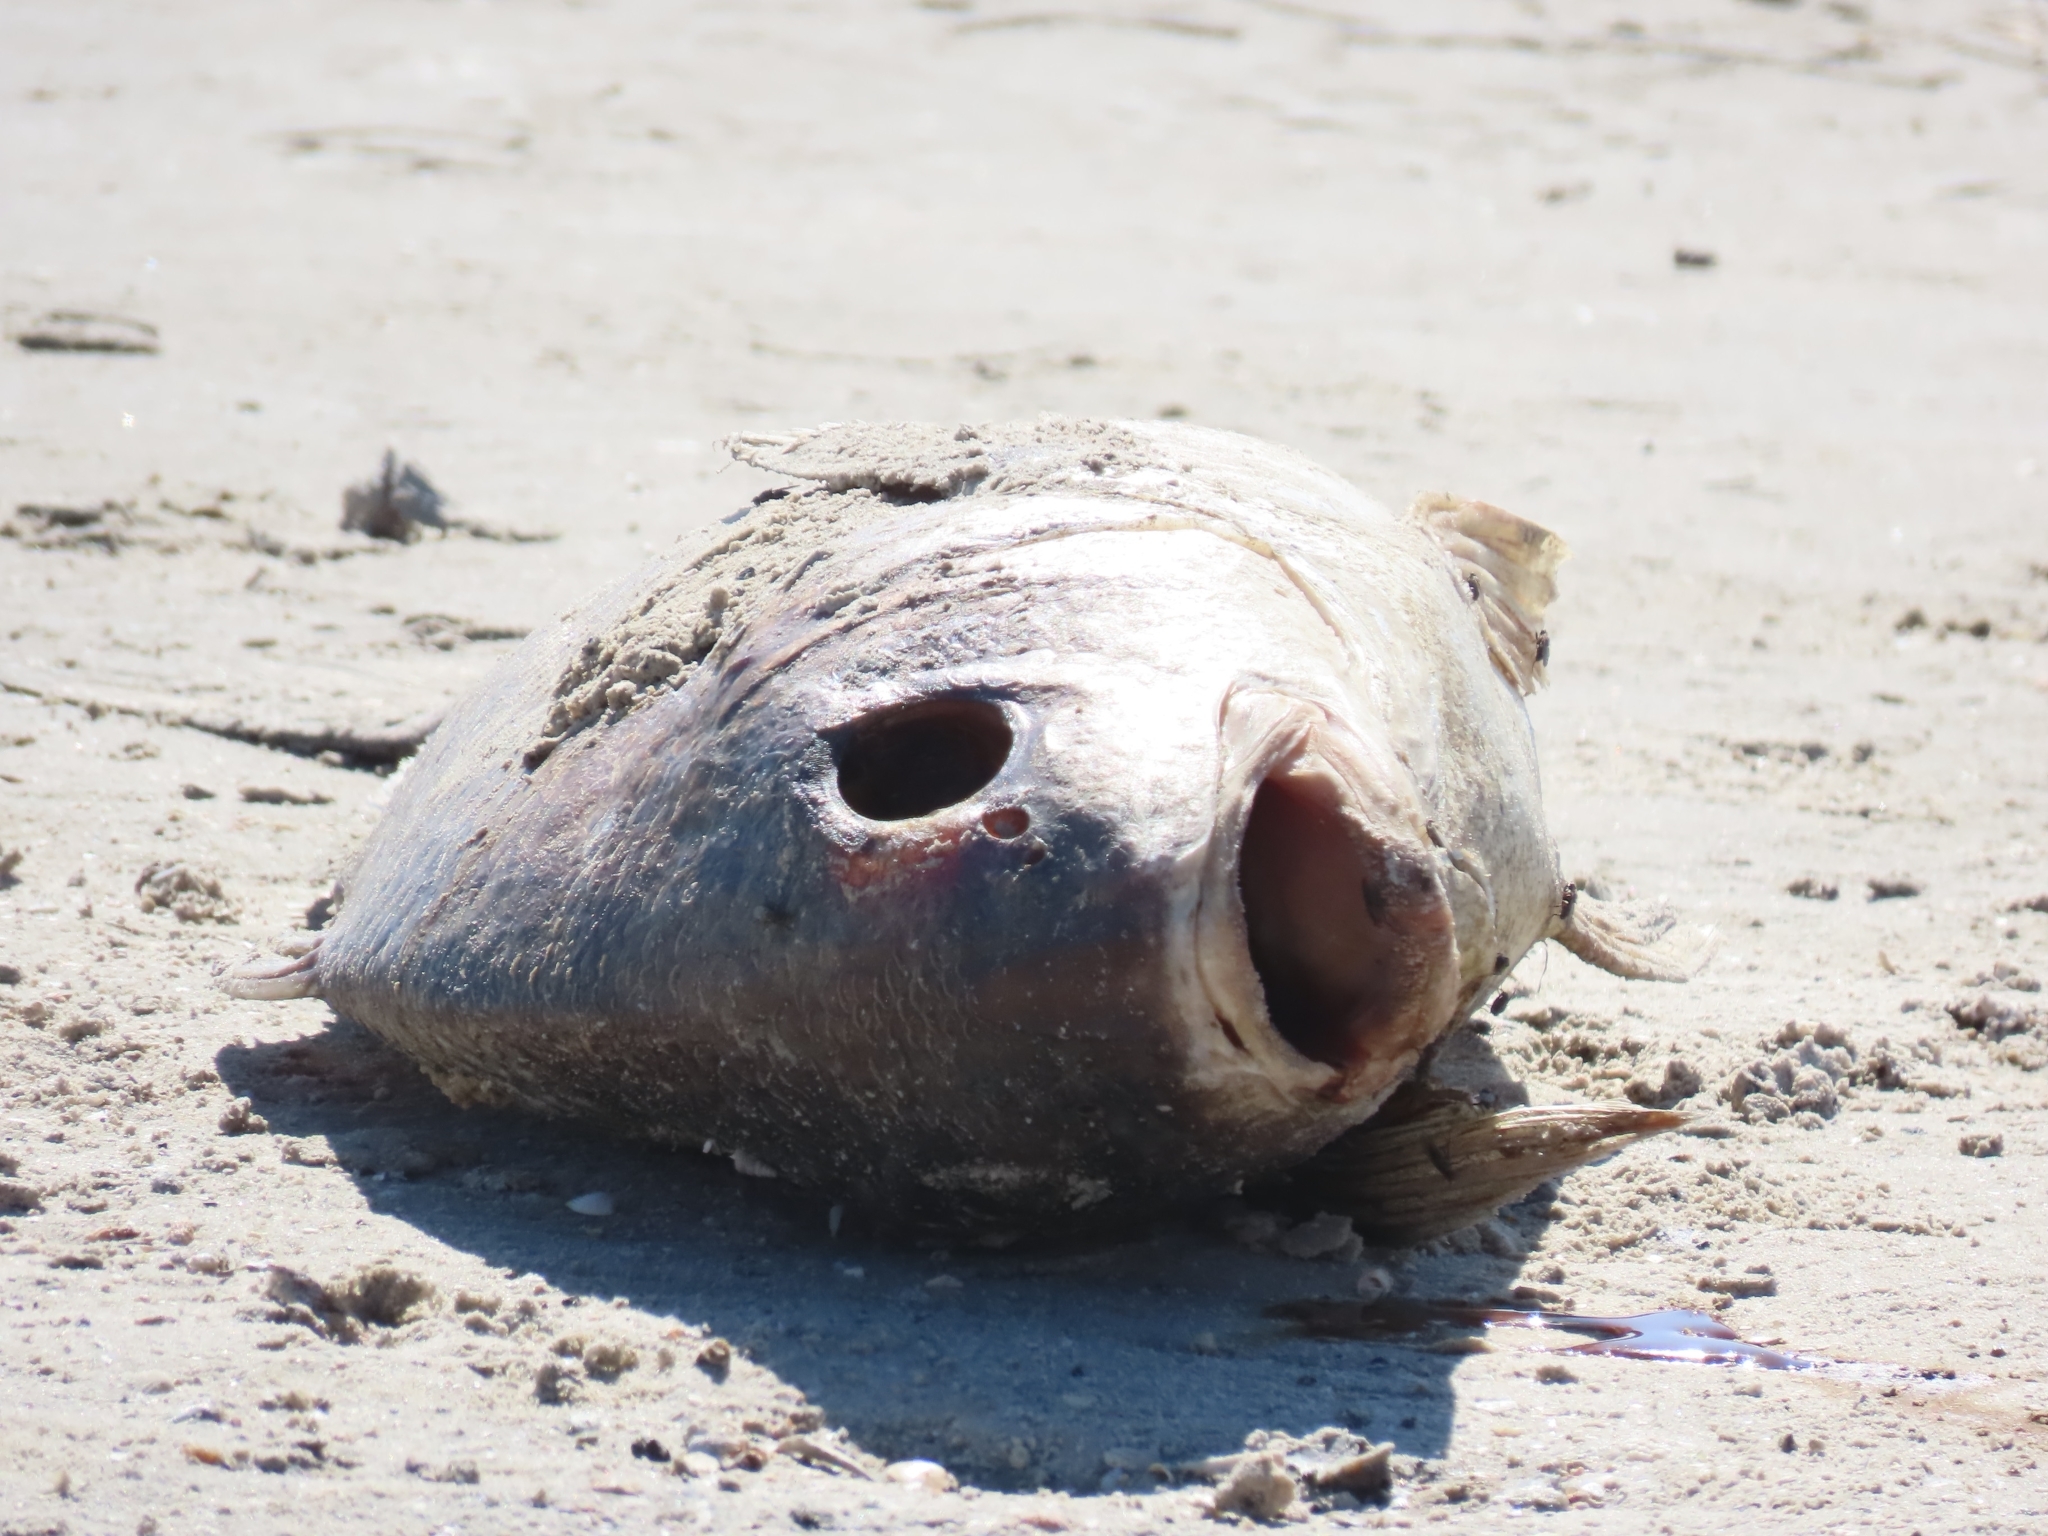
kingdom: Animalia
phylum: Chordata
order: Perciformes
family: Sciaenidae
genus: Pogonias
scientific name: Pogonias cromis
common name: Black drum
